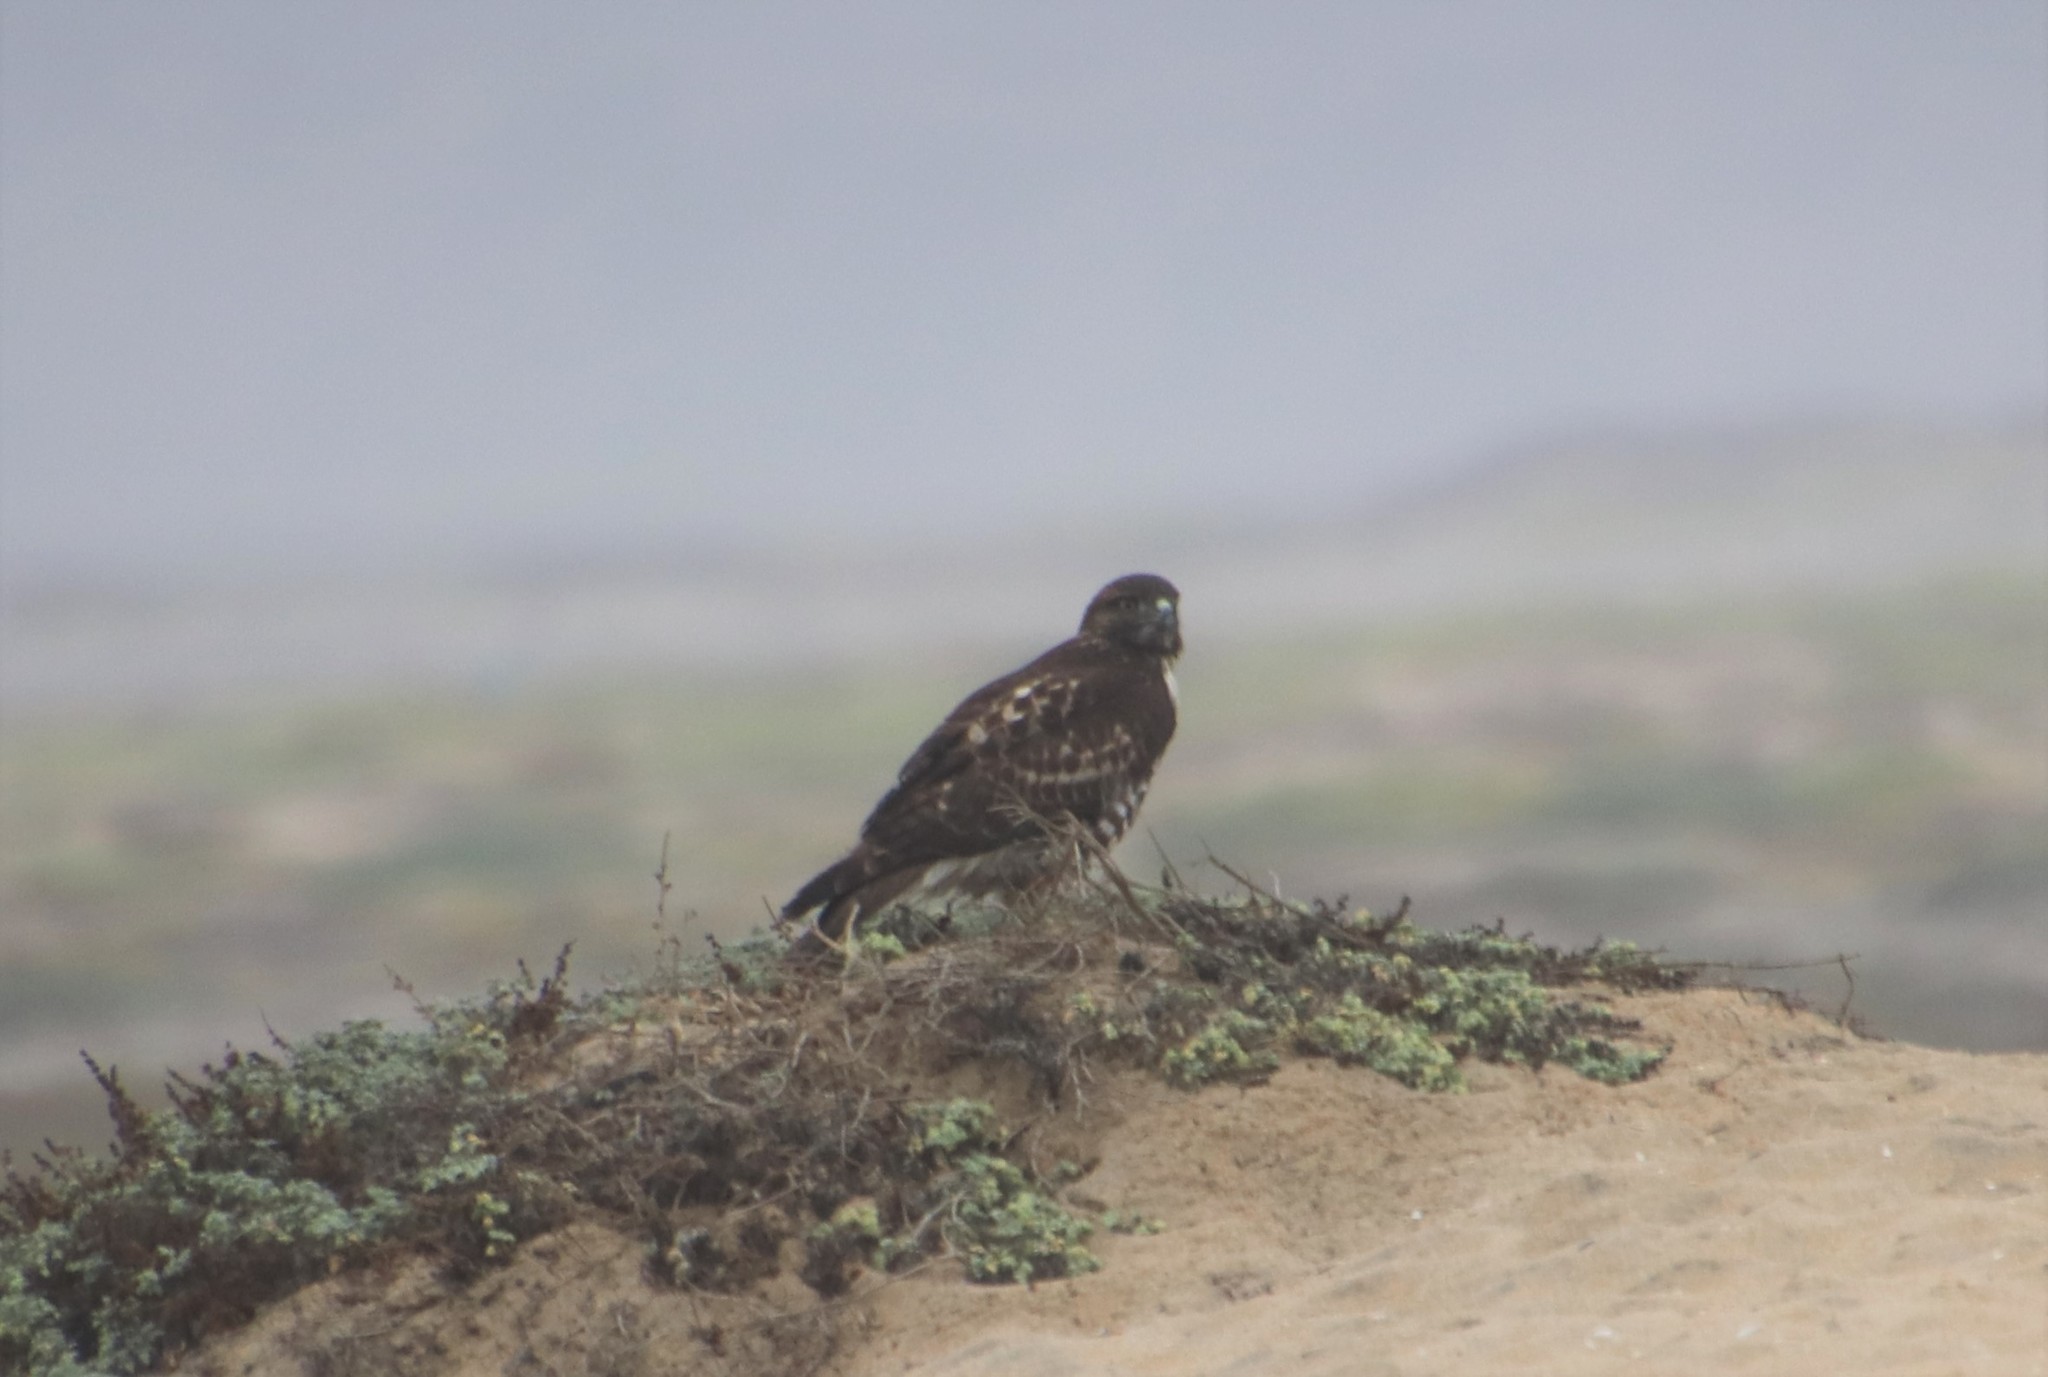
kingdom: Animalia
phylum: Chordata
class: Aves
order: Accipitriformes
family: Accipitridae
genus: Buteo
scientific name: Buteo jamaicensis
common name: Red-tailed hawk
